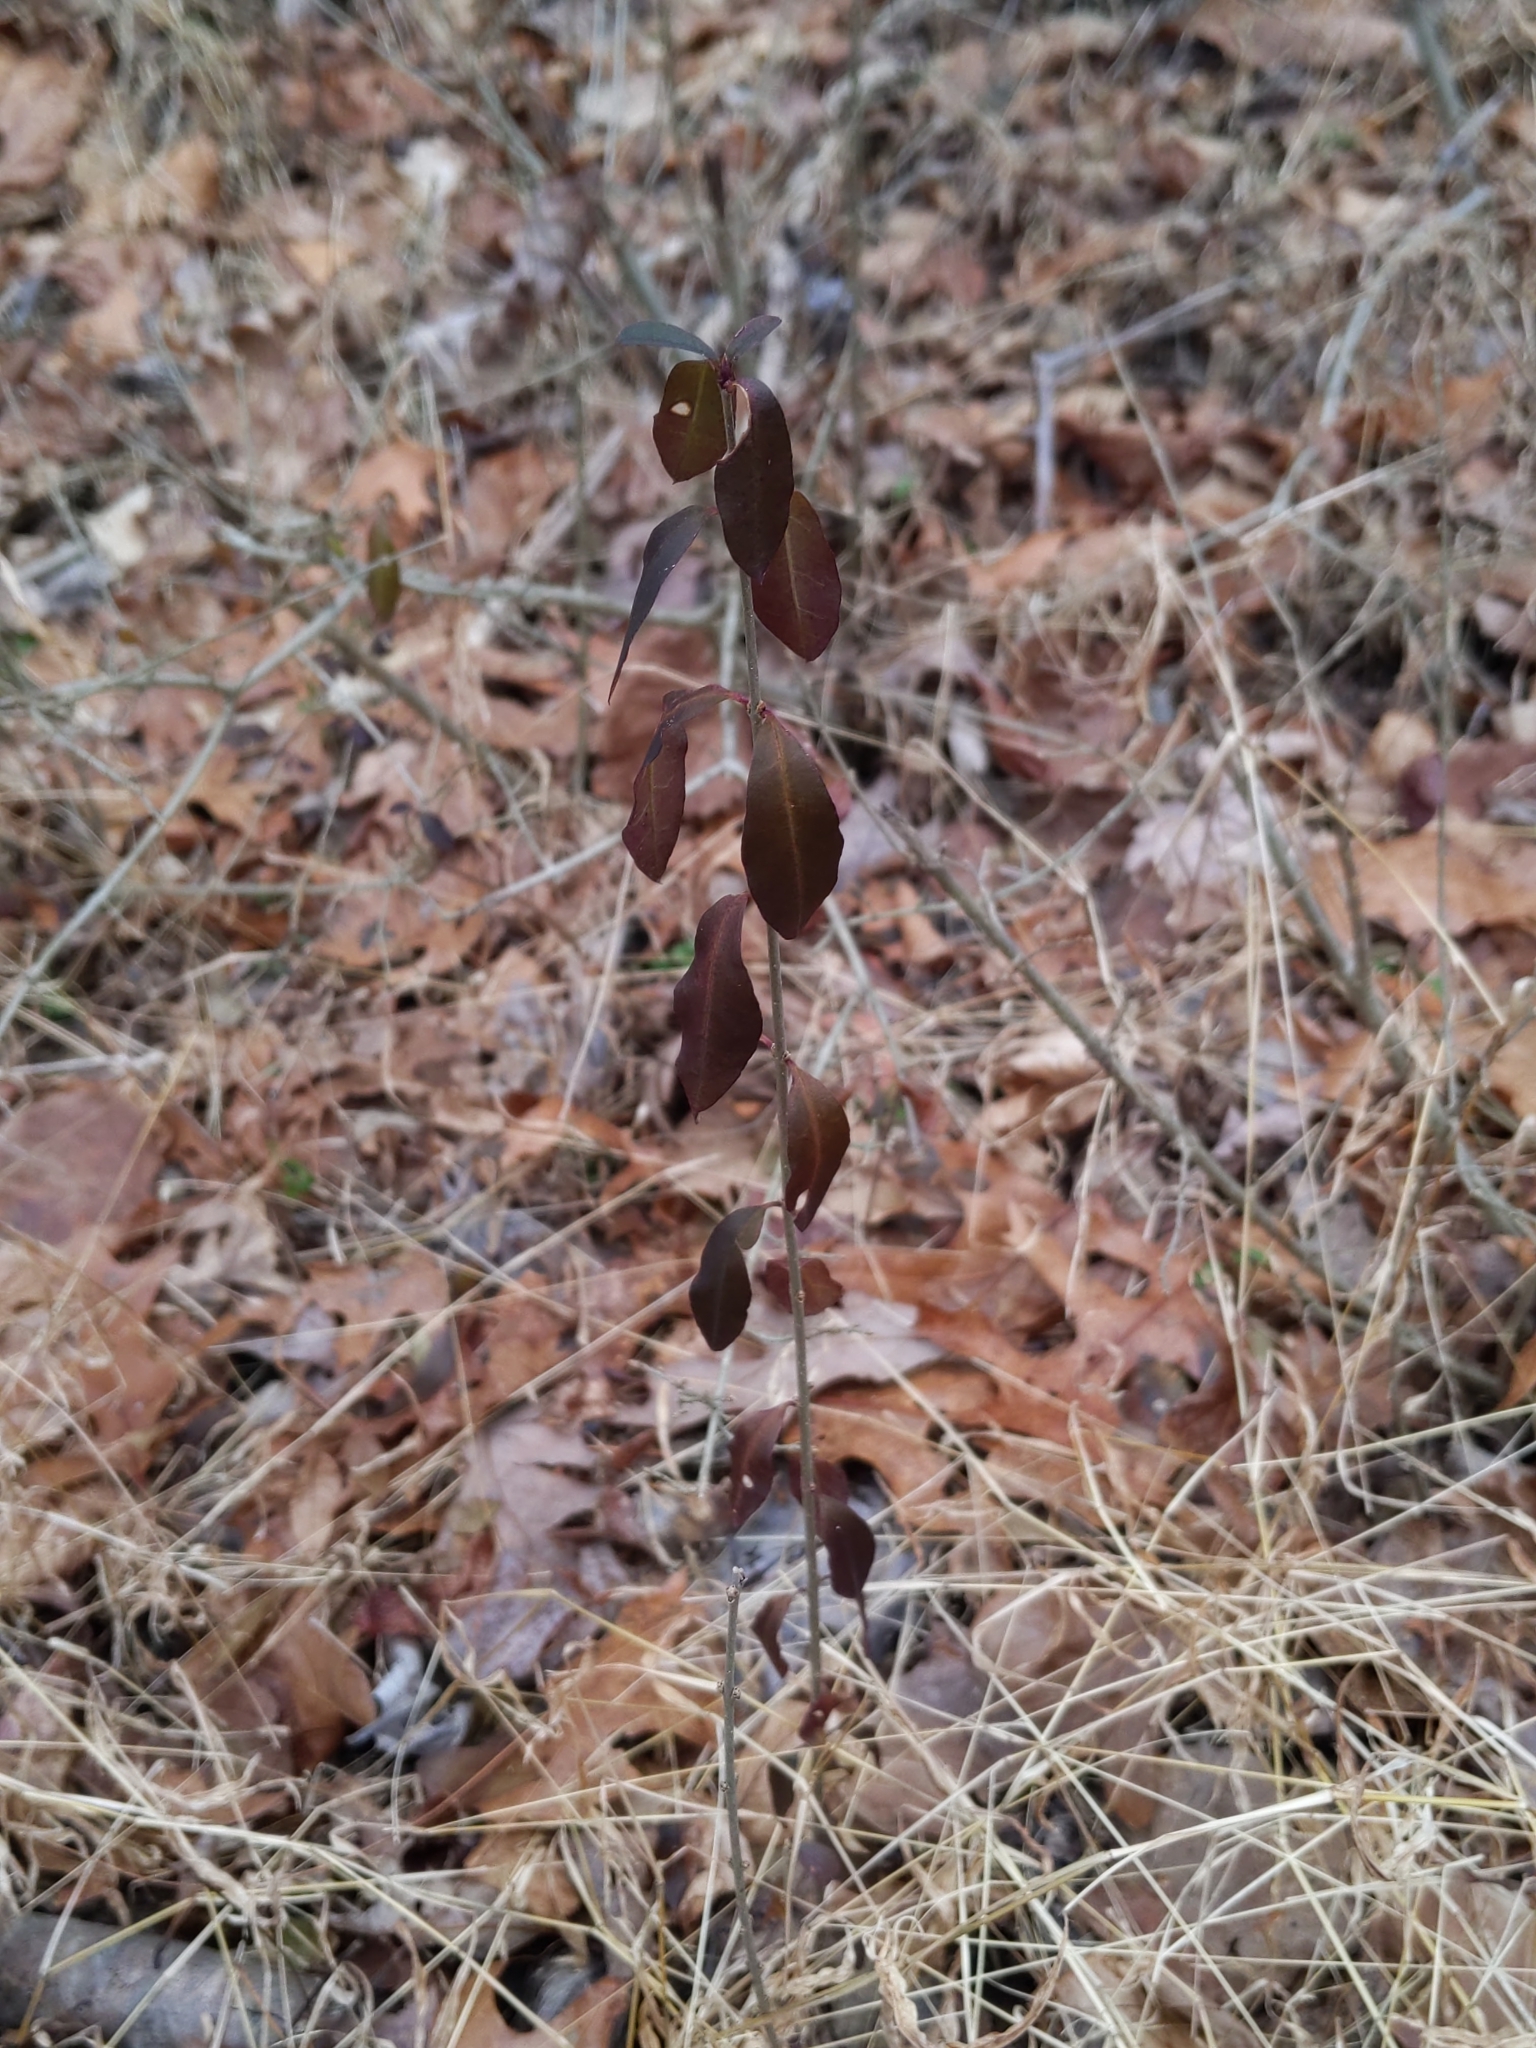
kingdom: Plantae
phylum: Tracheophyta
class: Magnoliopsida
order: Celastrales
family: Celastraceae
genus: Euonymus
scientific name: Euonymus fortunei
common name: Climbing euonymus
